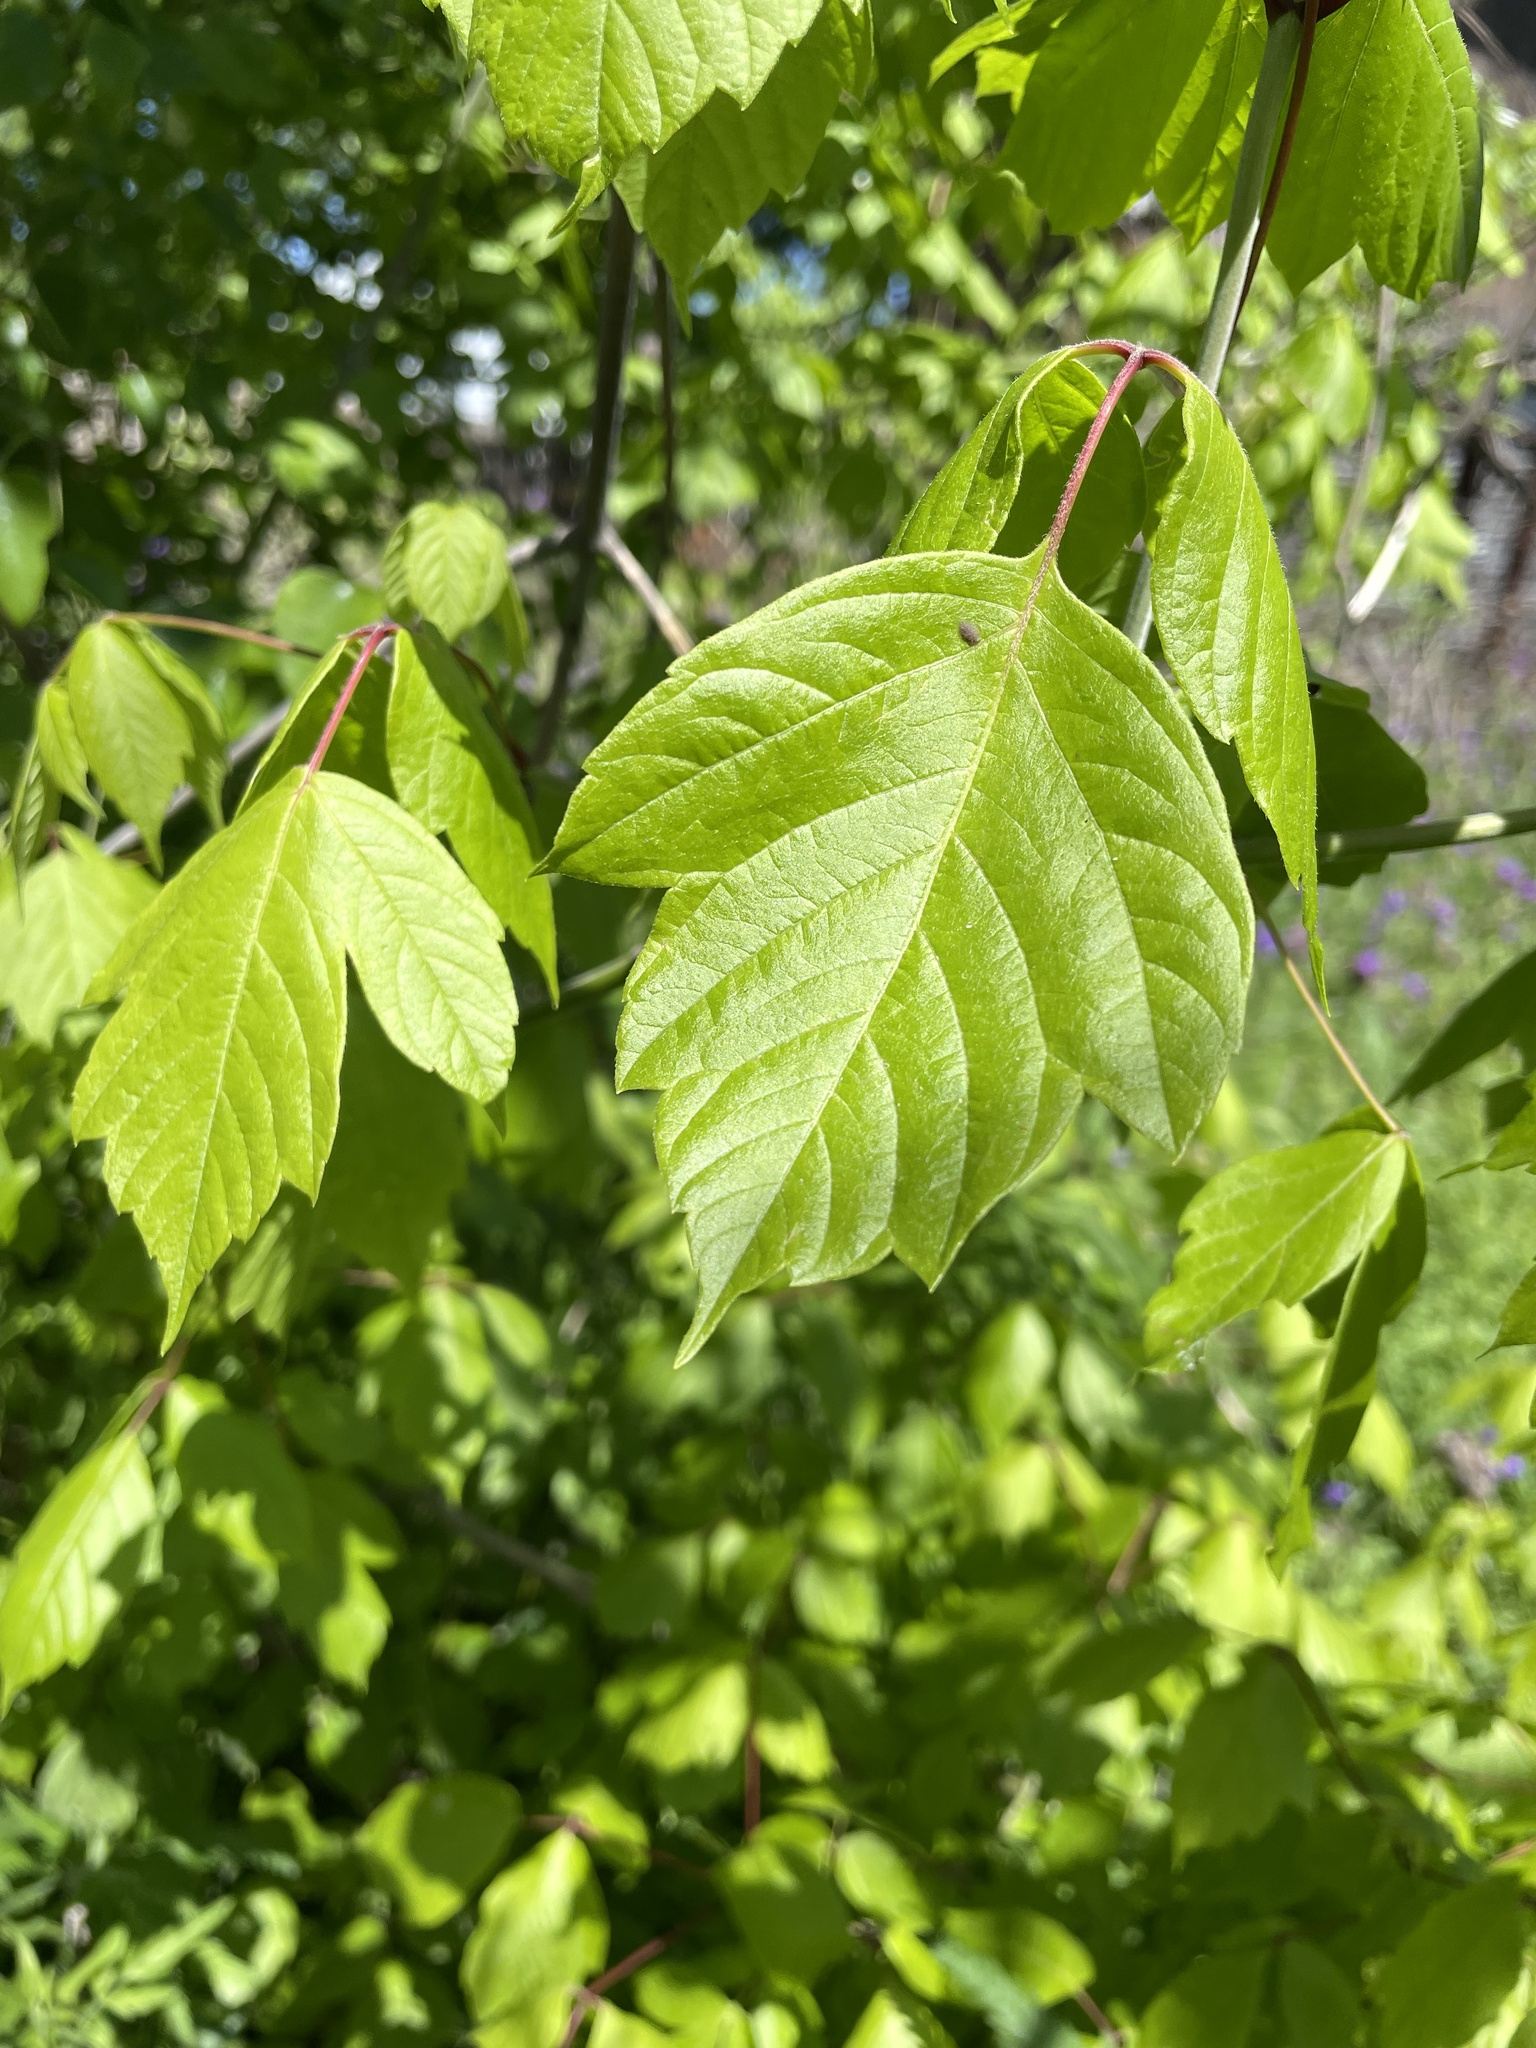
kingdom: Plantae
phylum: Tracheophyta
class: Magnoliopsida
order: Sapindales
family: Sapindaceae
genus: Acer
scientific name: Acer negundo
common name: Ashleaf maple
